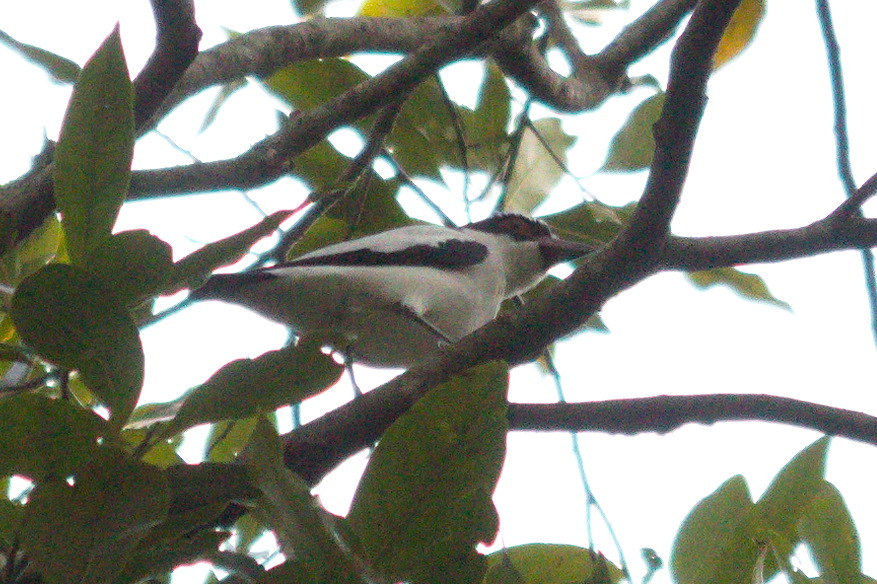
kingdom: Animalia
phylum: Chordata
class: Aves
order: Passeriformes
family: Cotingidae
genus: Tityra
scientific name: Tityra cayana
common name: Black-tailed tityra
